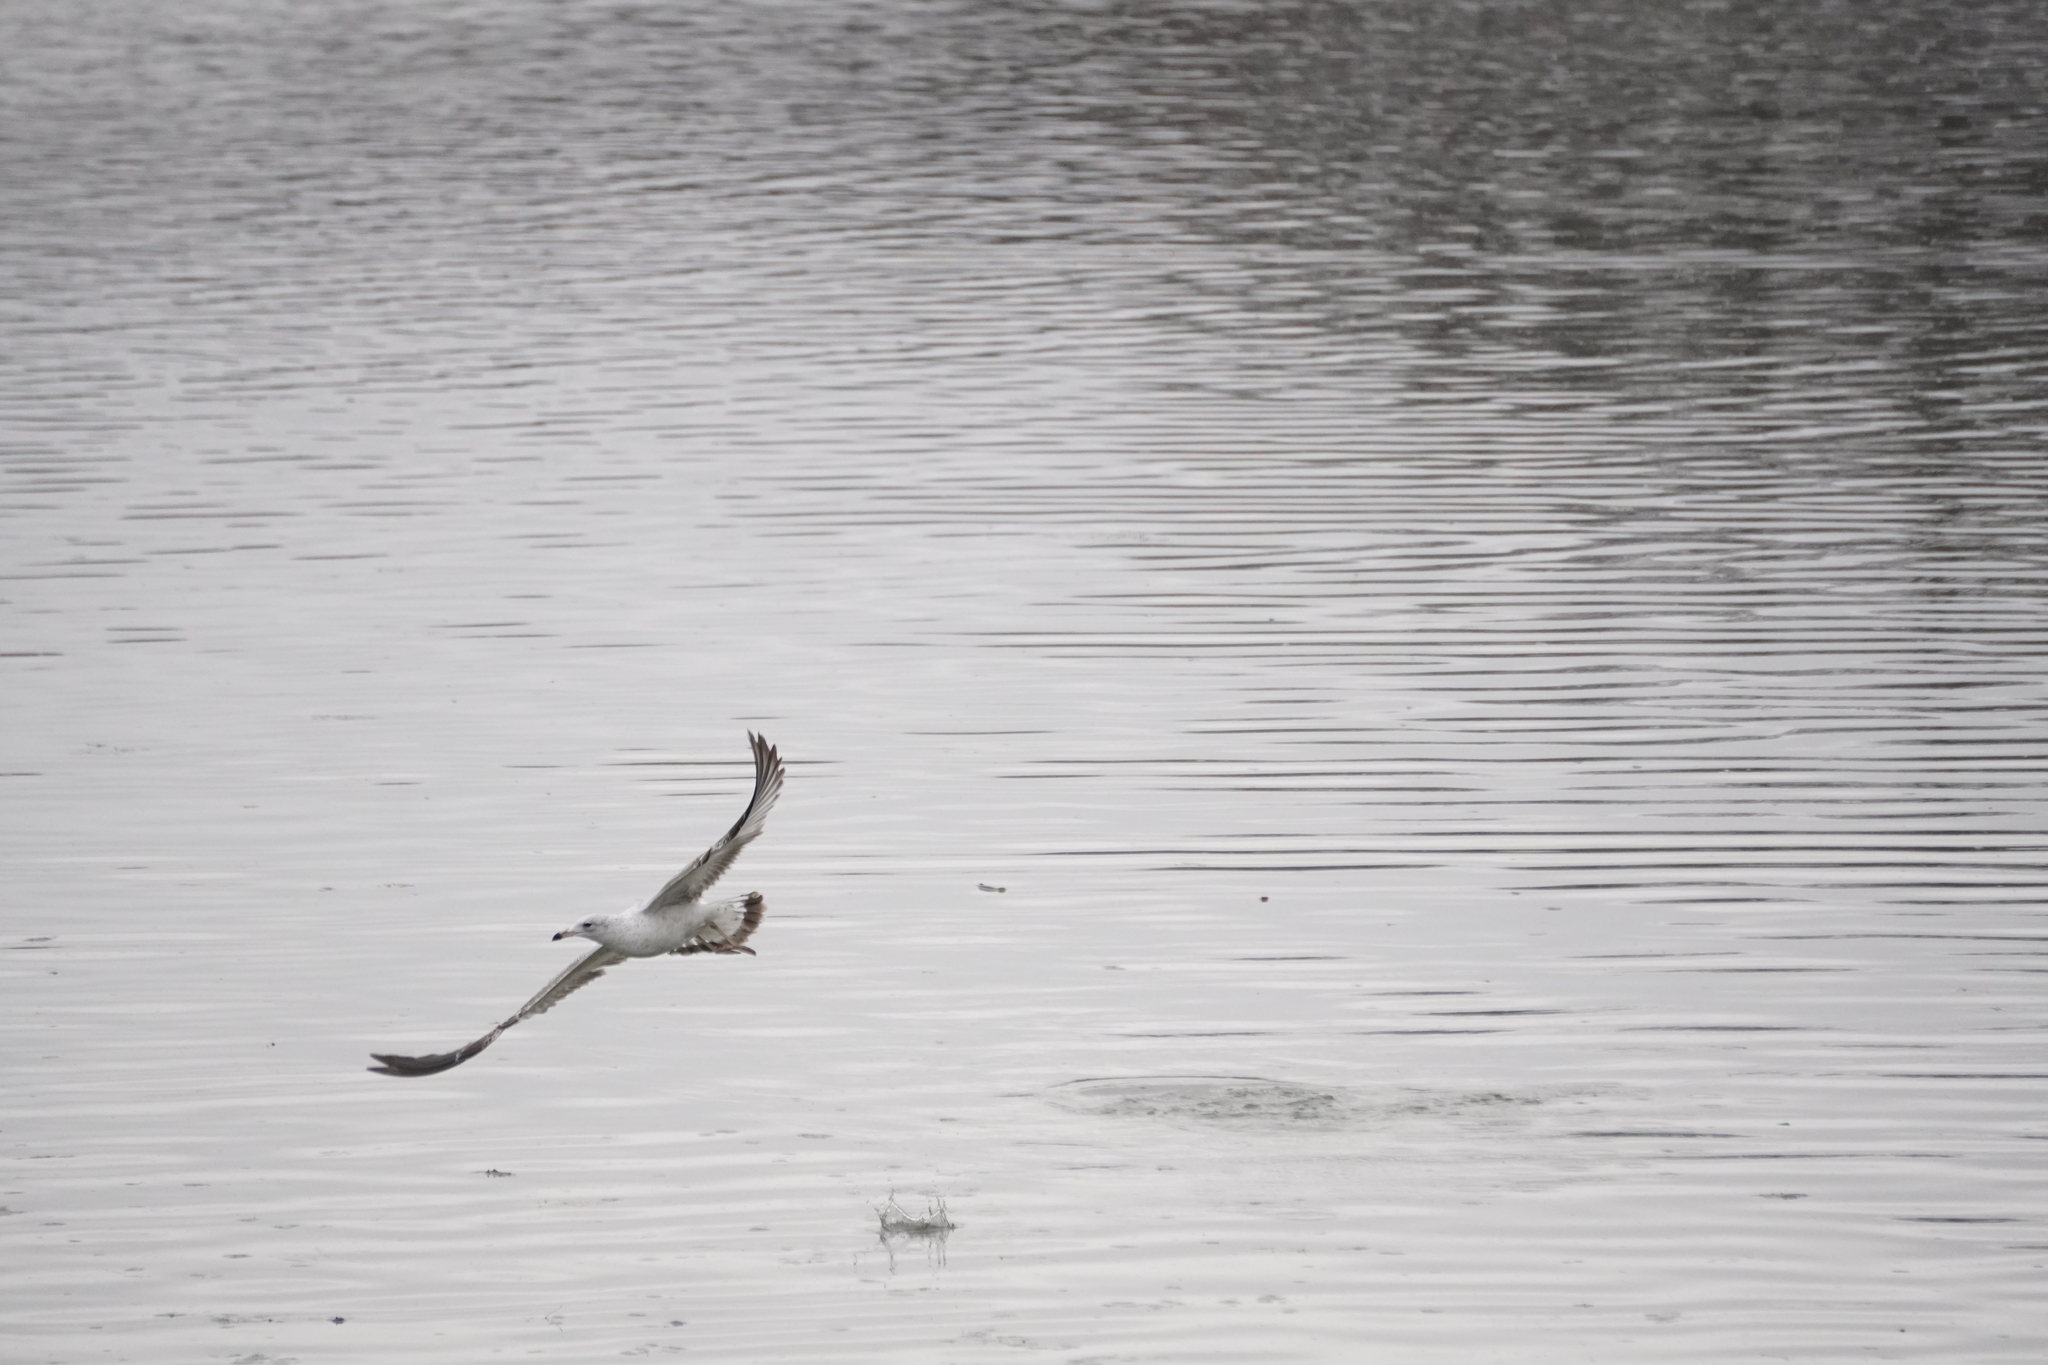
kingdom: Animalia
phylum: Chordata
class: Aves
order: Charadriiformes
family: Laridae
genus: Larus
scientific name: Larus delawarensis
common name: Ring-billed gull
